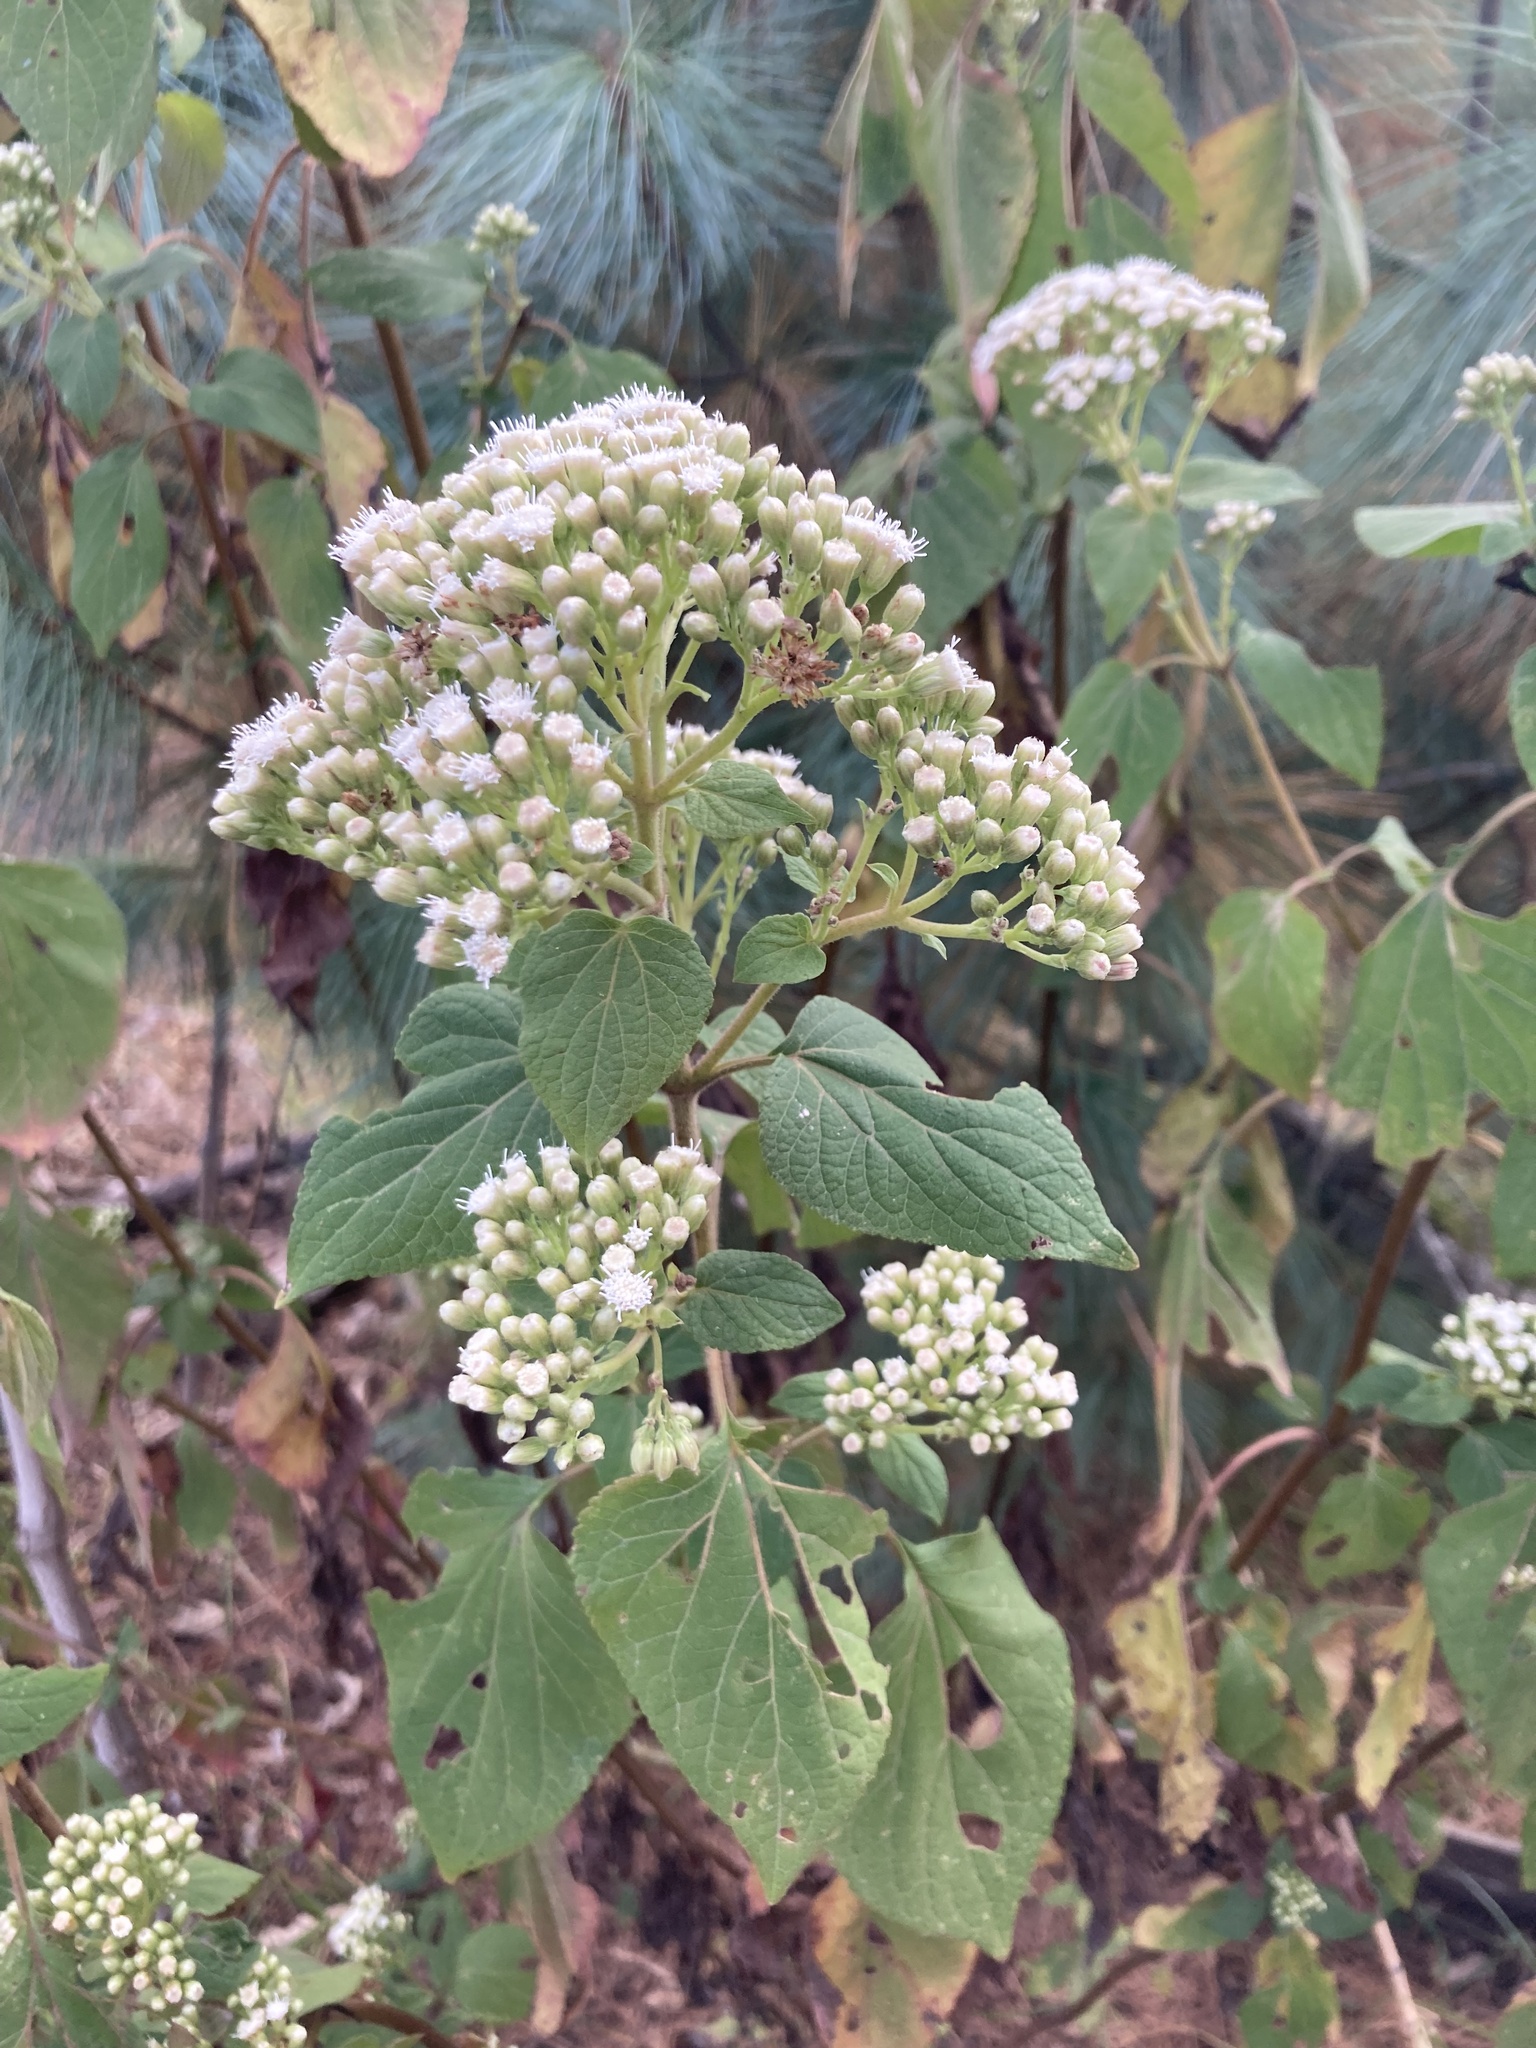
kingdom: Plantae
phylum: Tracheophyta
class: Magnoliopsida
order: Asterales
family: Asteraceae
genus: Ageratina
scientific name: Ageratina vernalis
